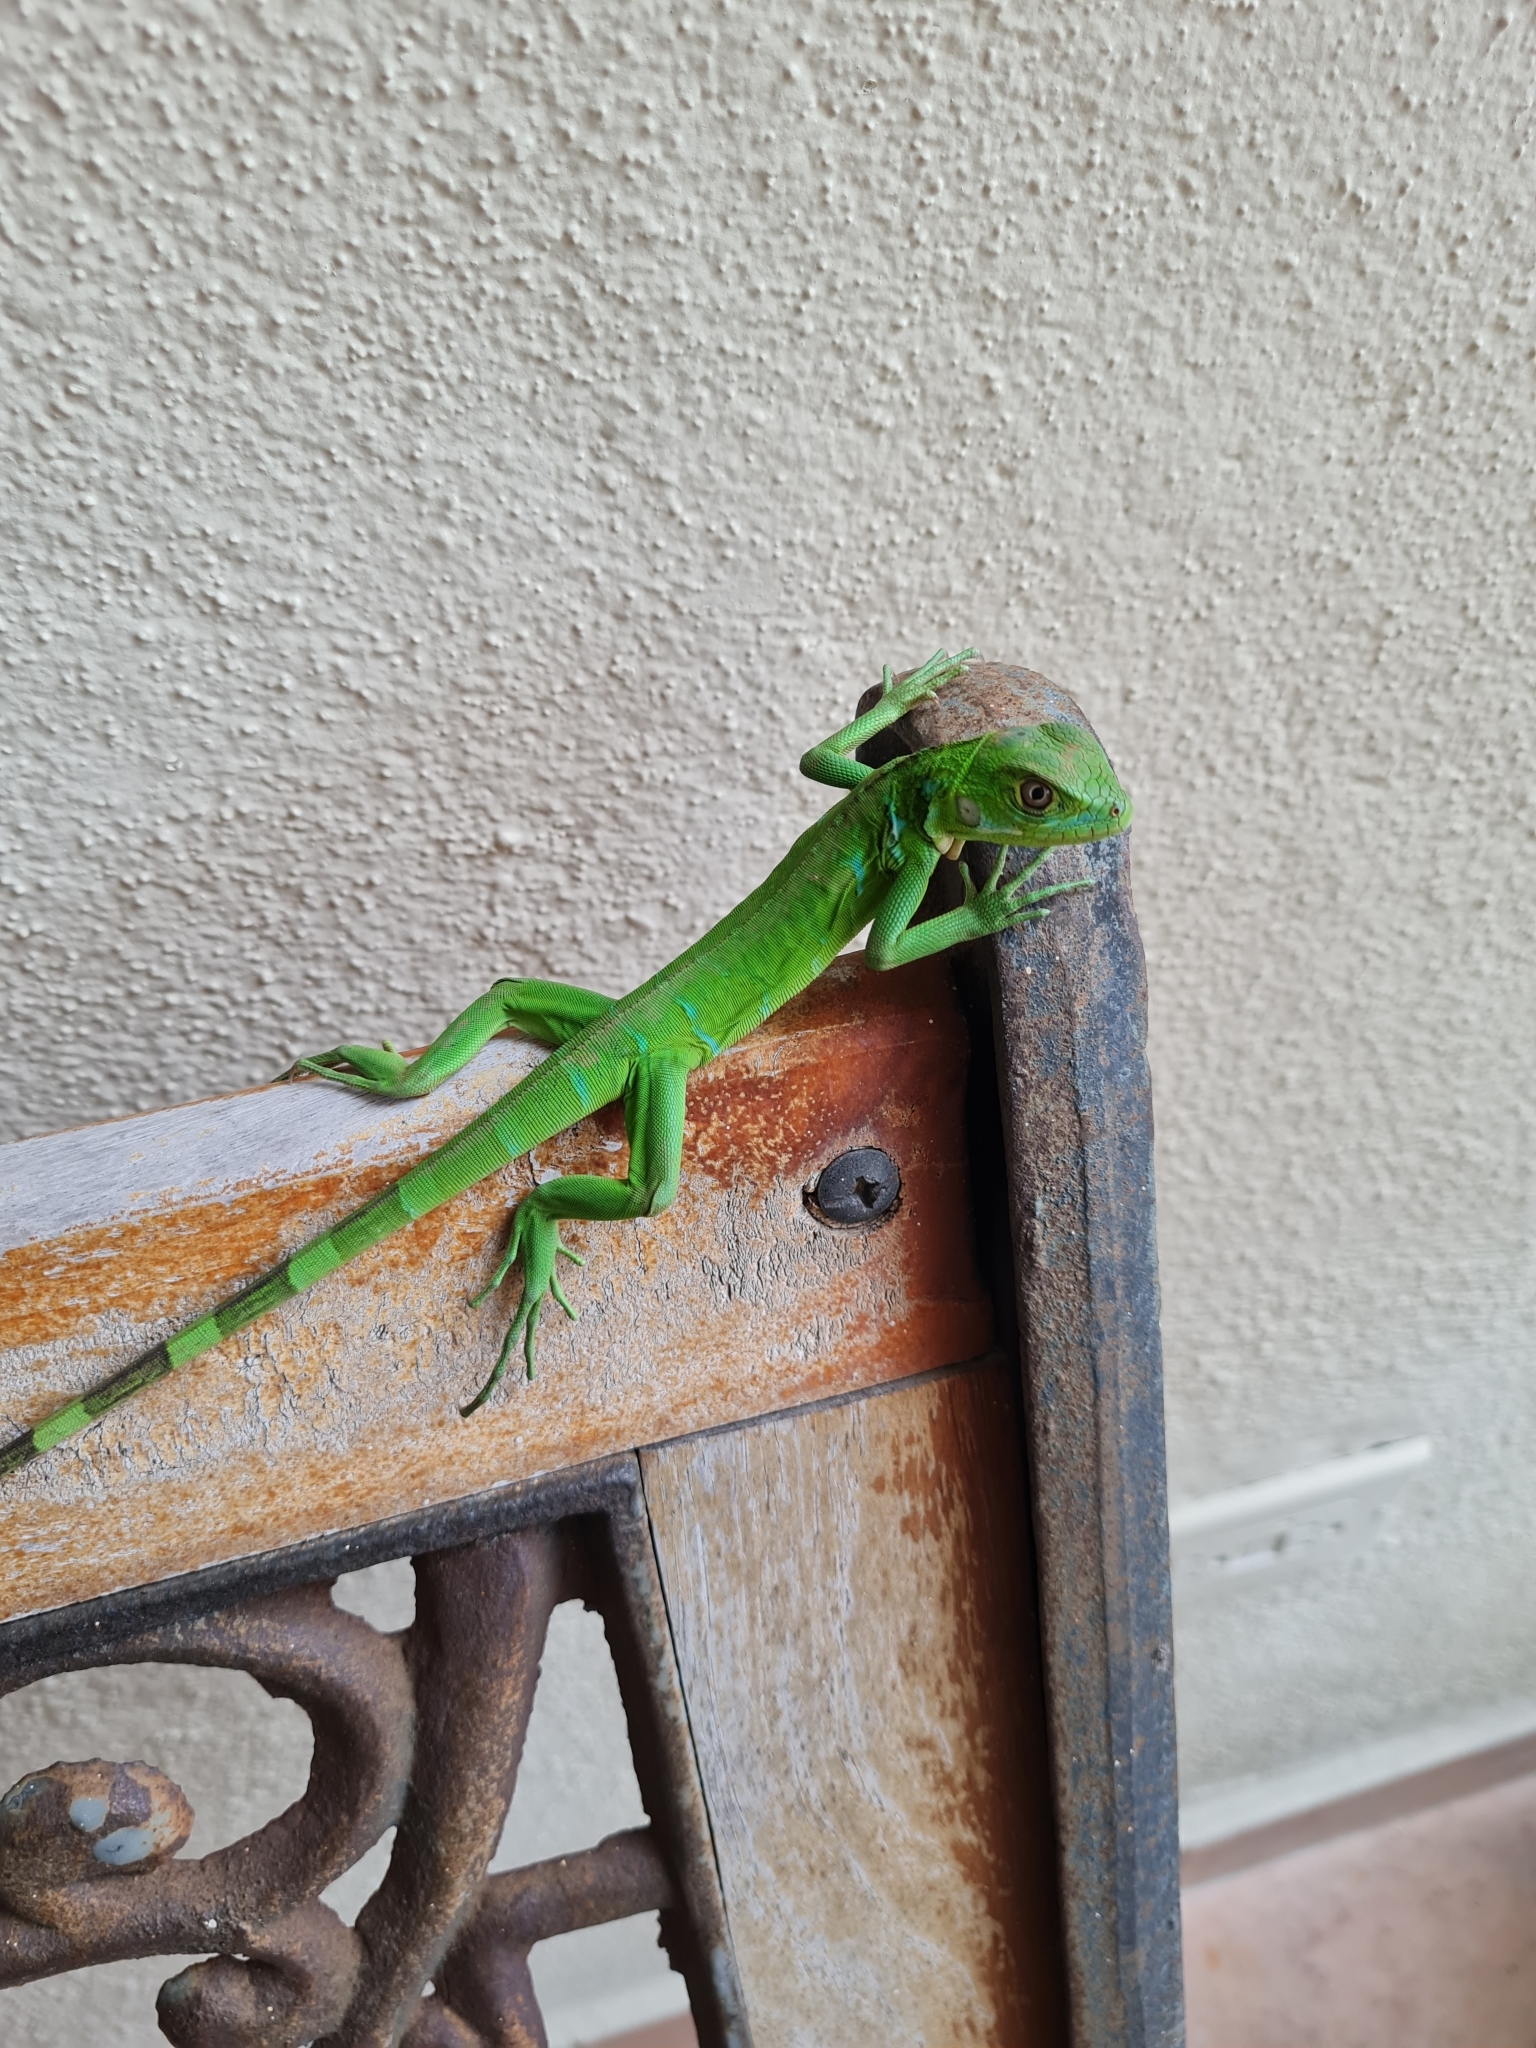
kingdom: Animalia
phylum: Chordata
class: Squamata
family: Iguanidae
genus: Iguana
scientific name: Iguana iguana
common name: Green iguana
